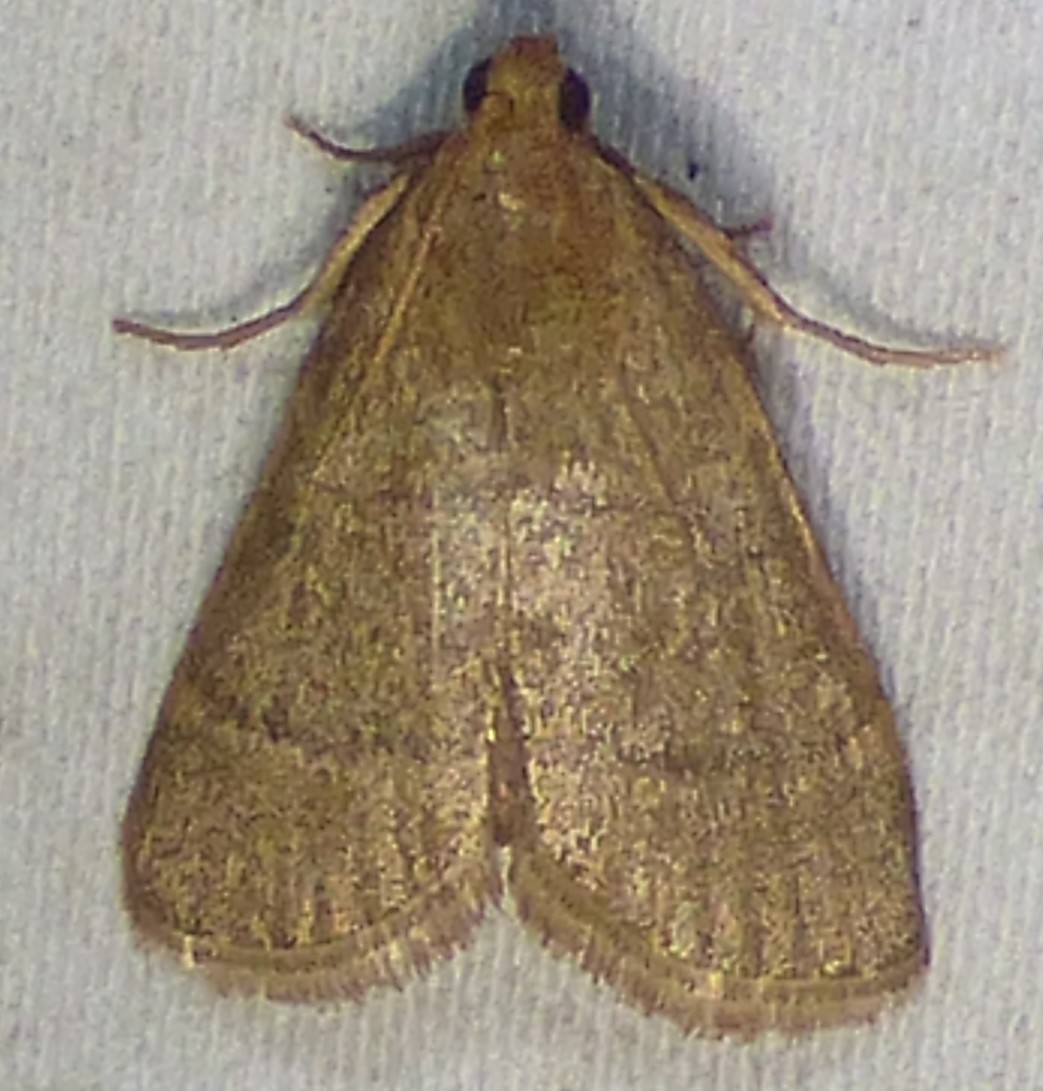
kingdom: Animalia
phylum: Arthropoda
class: Insecta
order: Lepidoptera
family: Pyralidae
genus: Hypsopygia
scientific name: Hypsopygia nostralis
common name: Southern hayworm moth
